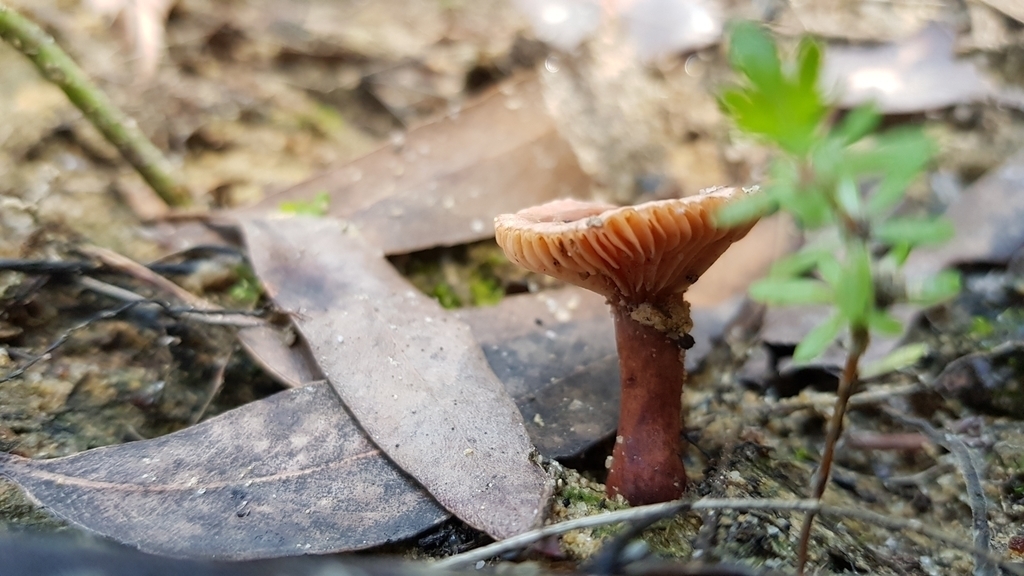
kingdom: Fungi
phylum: Basidiomycota
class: Agaricomycetes
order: Russulales
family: Russulaceae
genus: Lactarius
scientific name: Lactarius eucalypti
